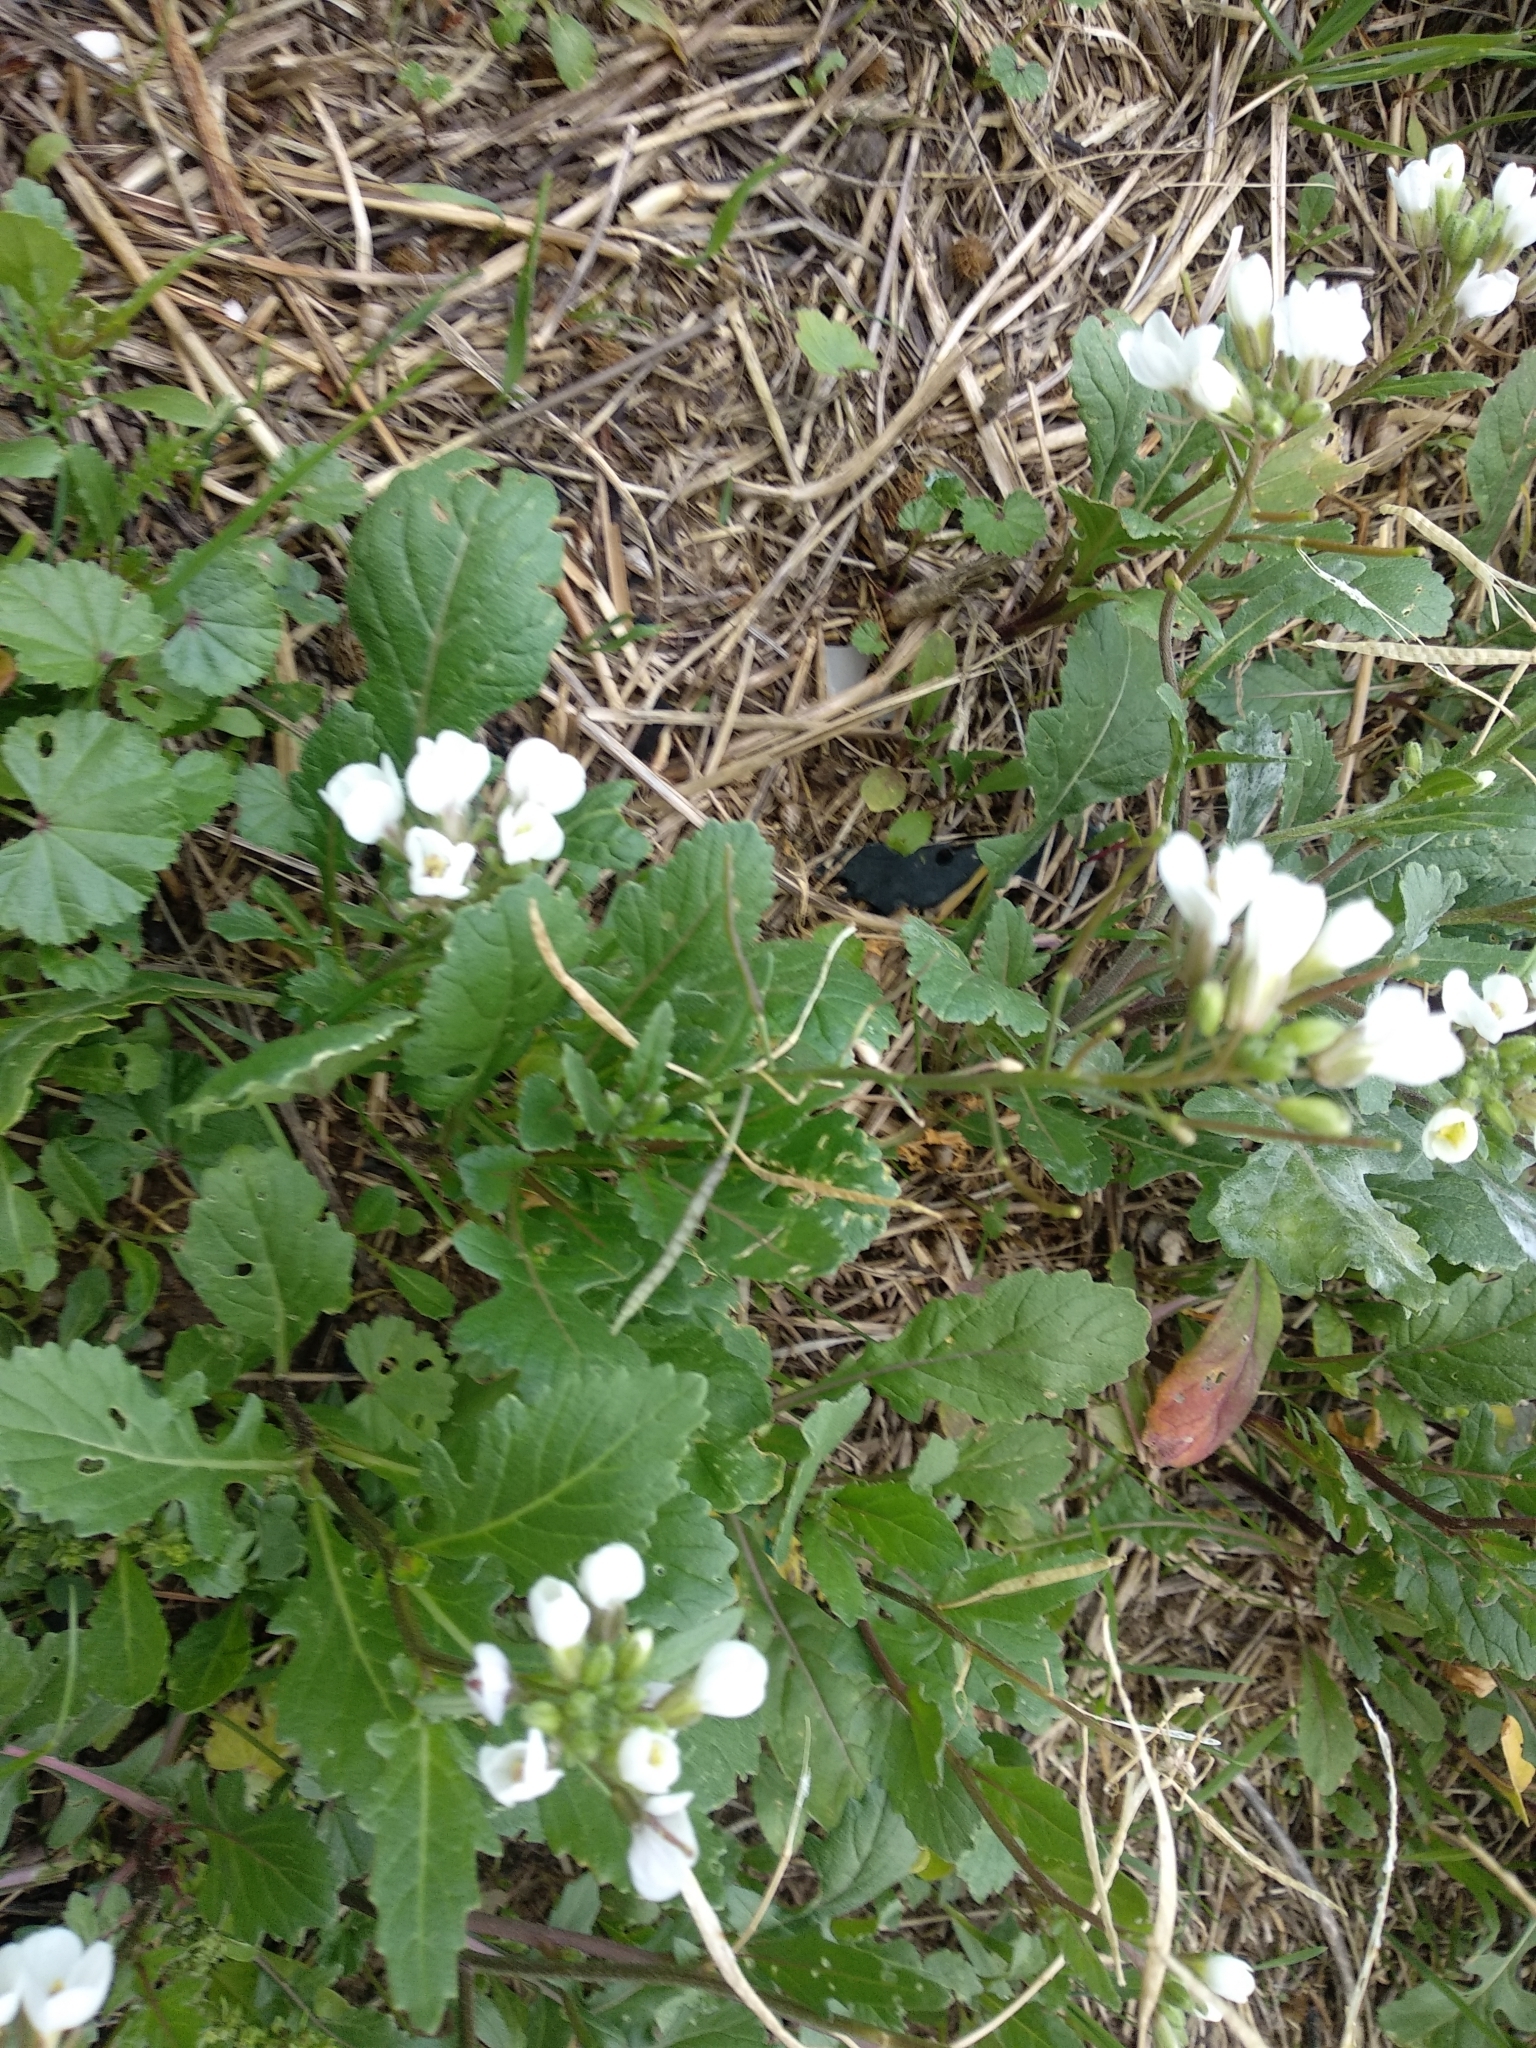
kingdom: Plantae
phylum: Tracheophyta
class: Magnoliopsida
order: Brassicales
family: Brassicaceae
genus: Diplotaxis
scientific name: Diplotaxis erucoides
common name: White rocket
